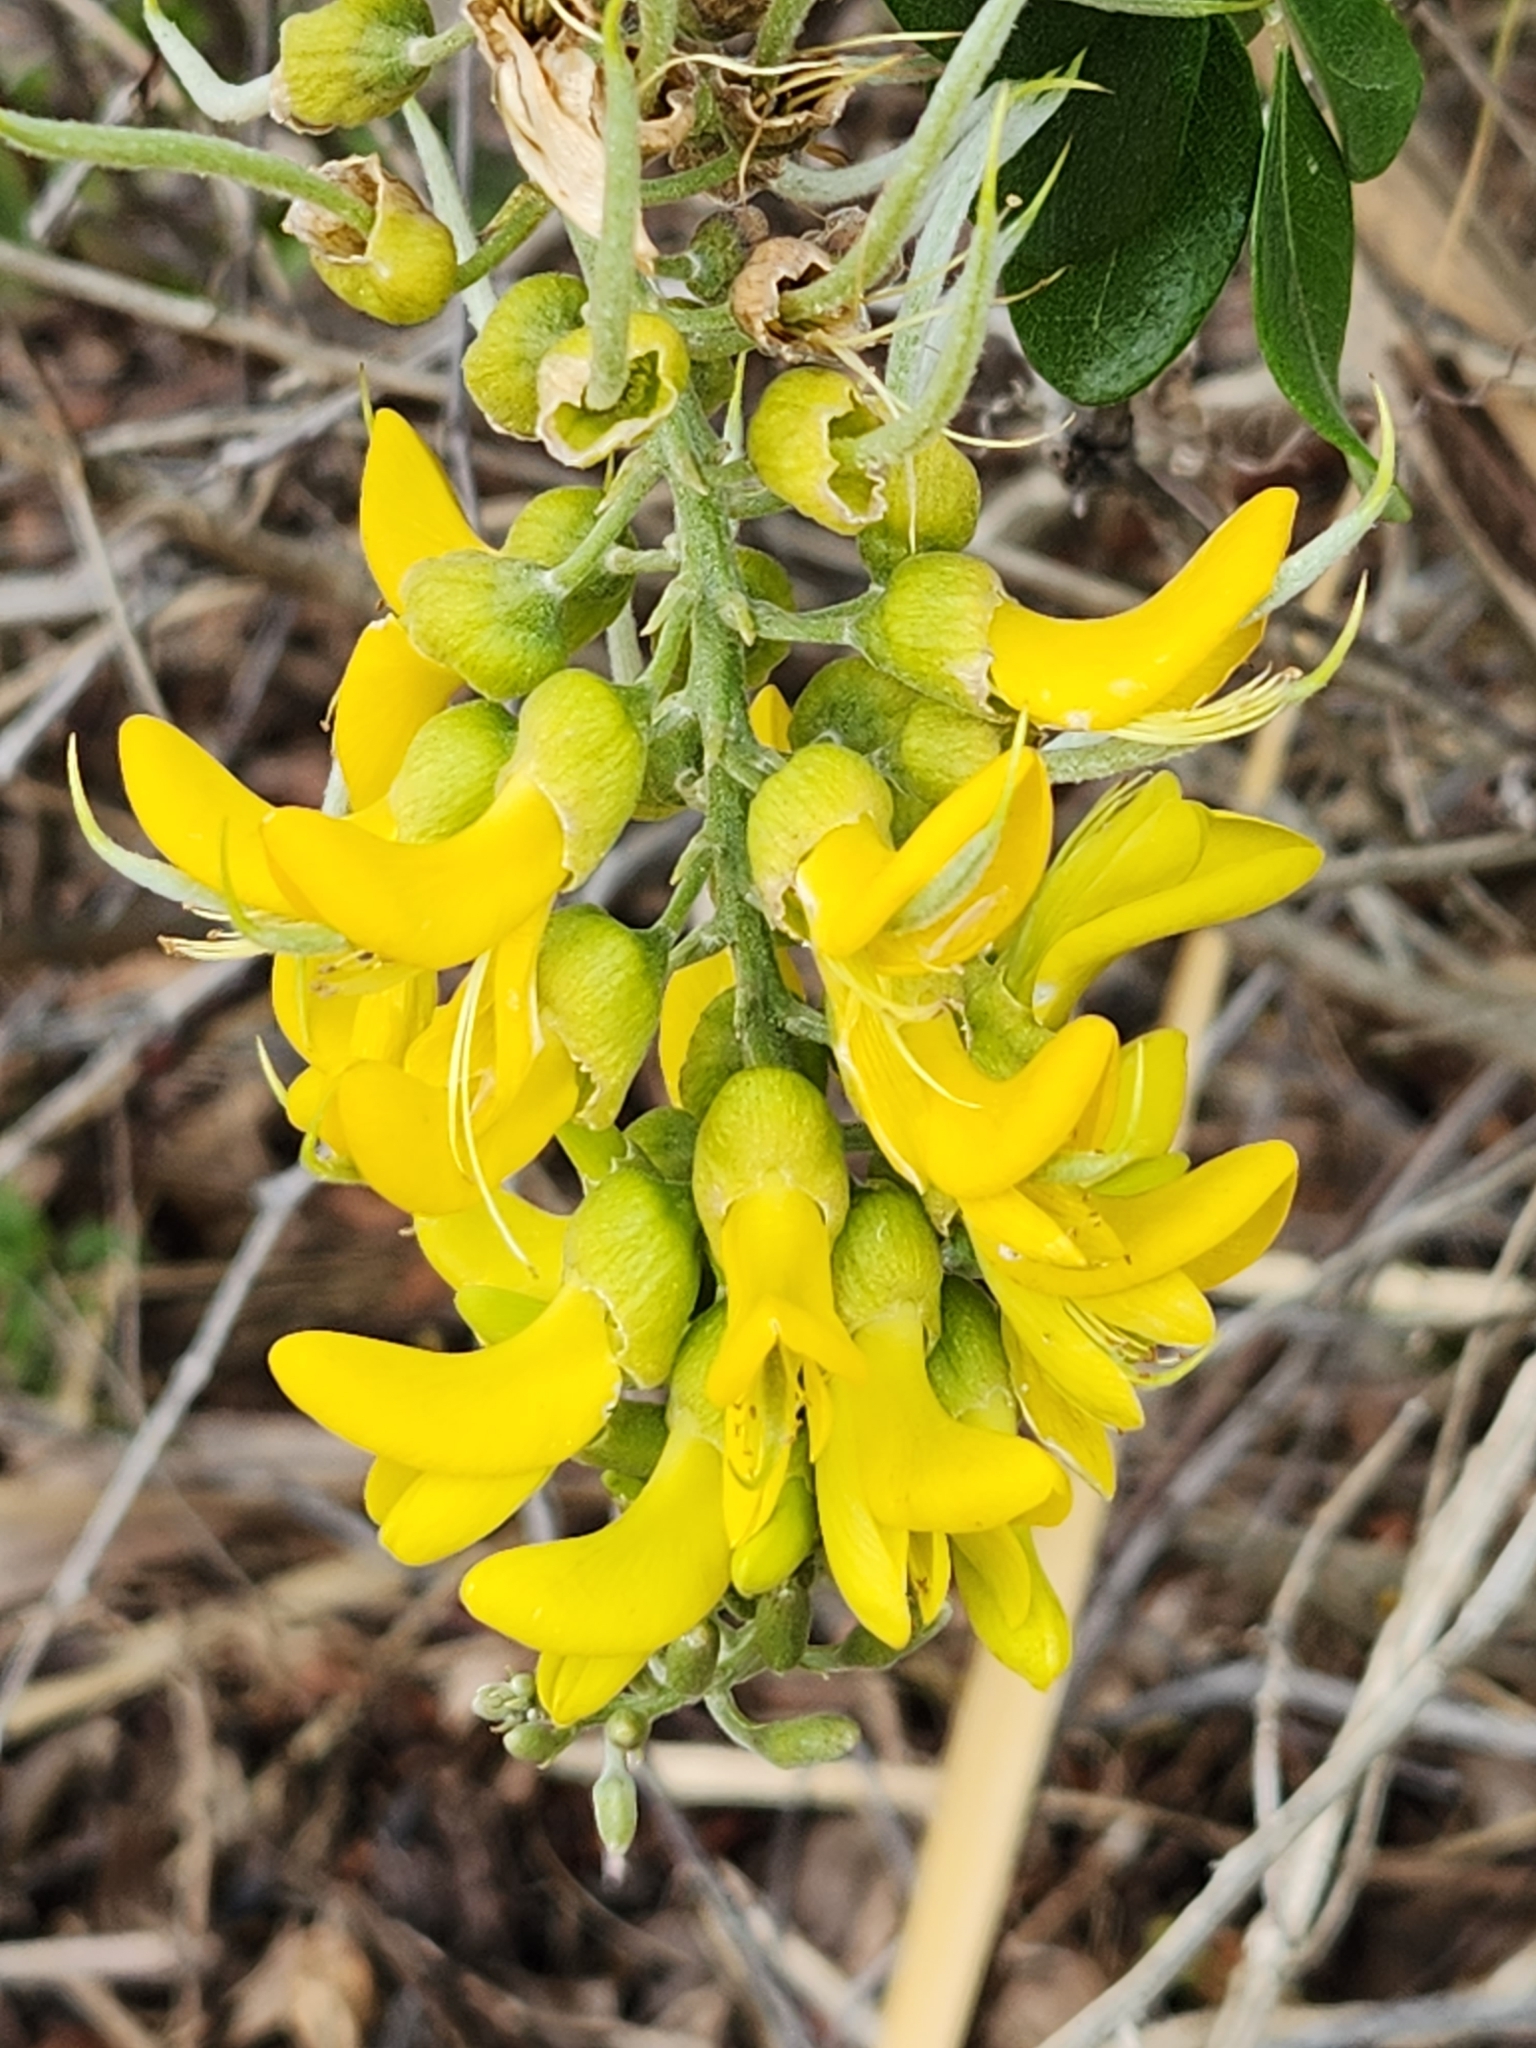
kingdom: Plantae
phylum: Tracheophyta
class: Magnoliopsida
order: Fabales
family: Fabaceae
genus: Sophora
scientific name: Sophora tomentosa
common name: Yellow necklacepod
